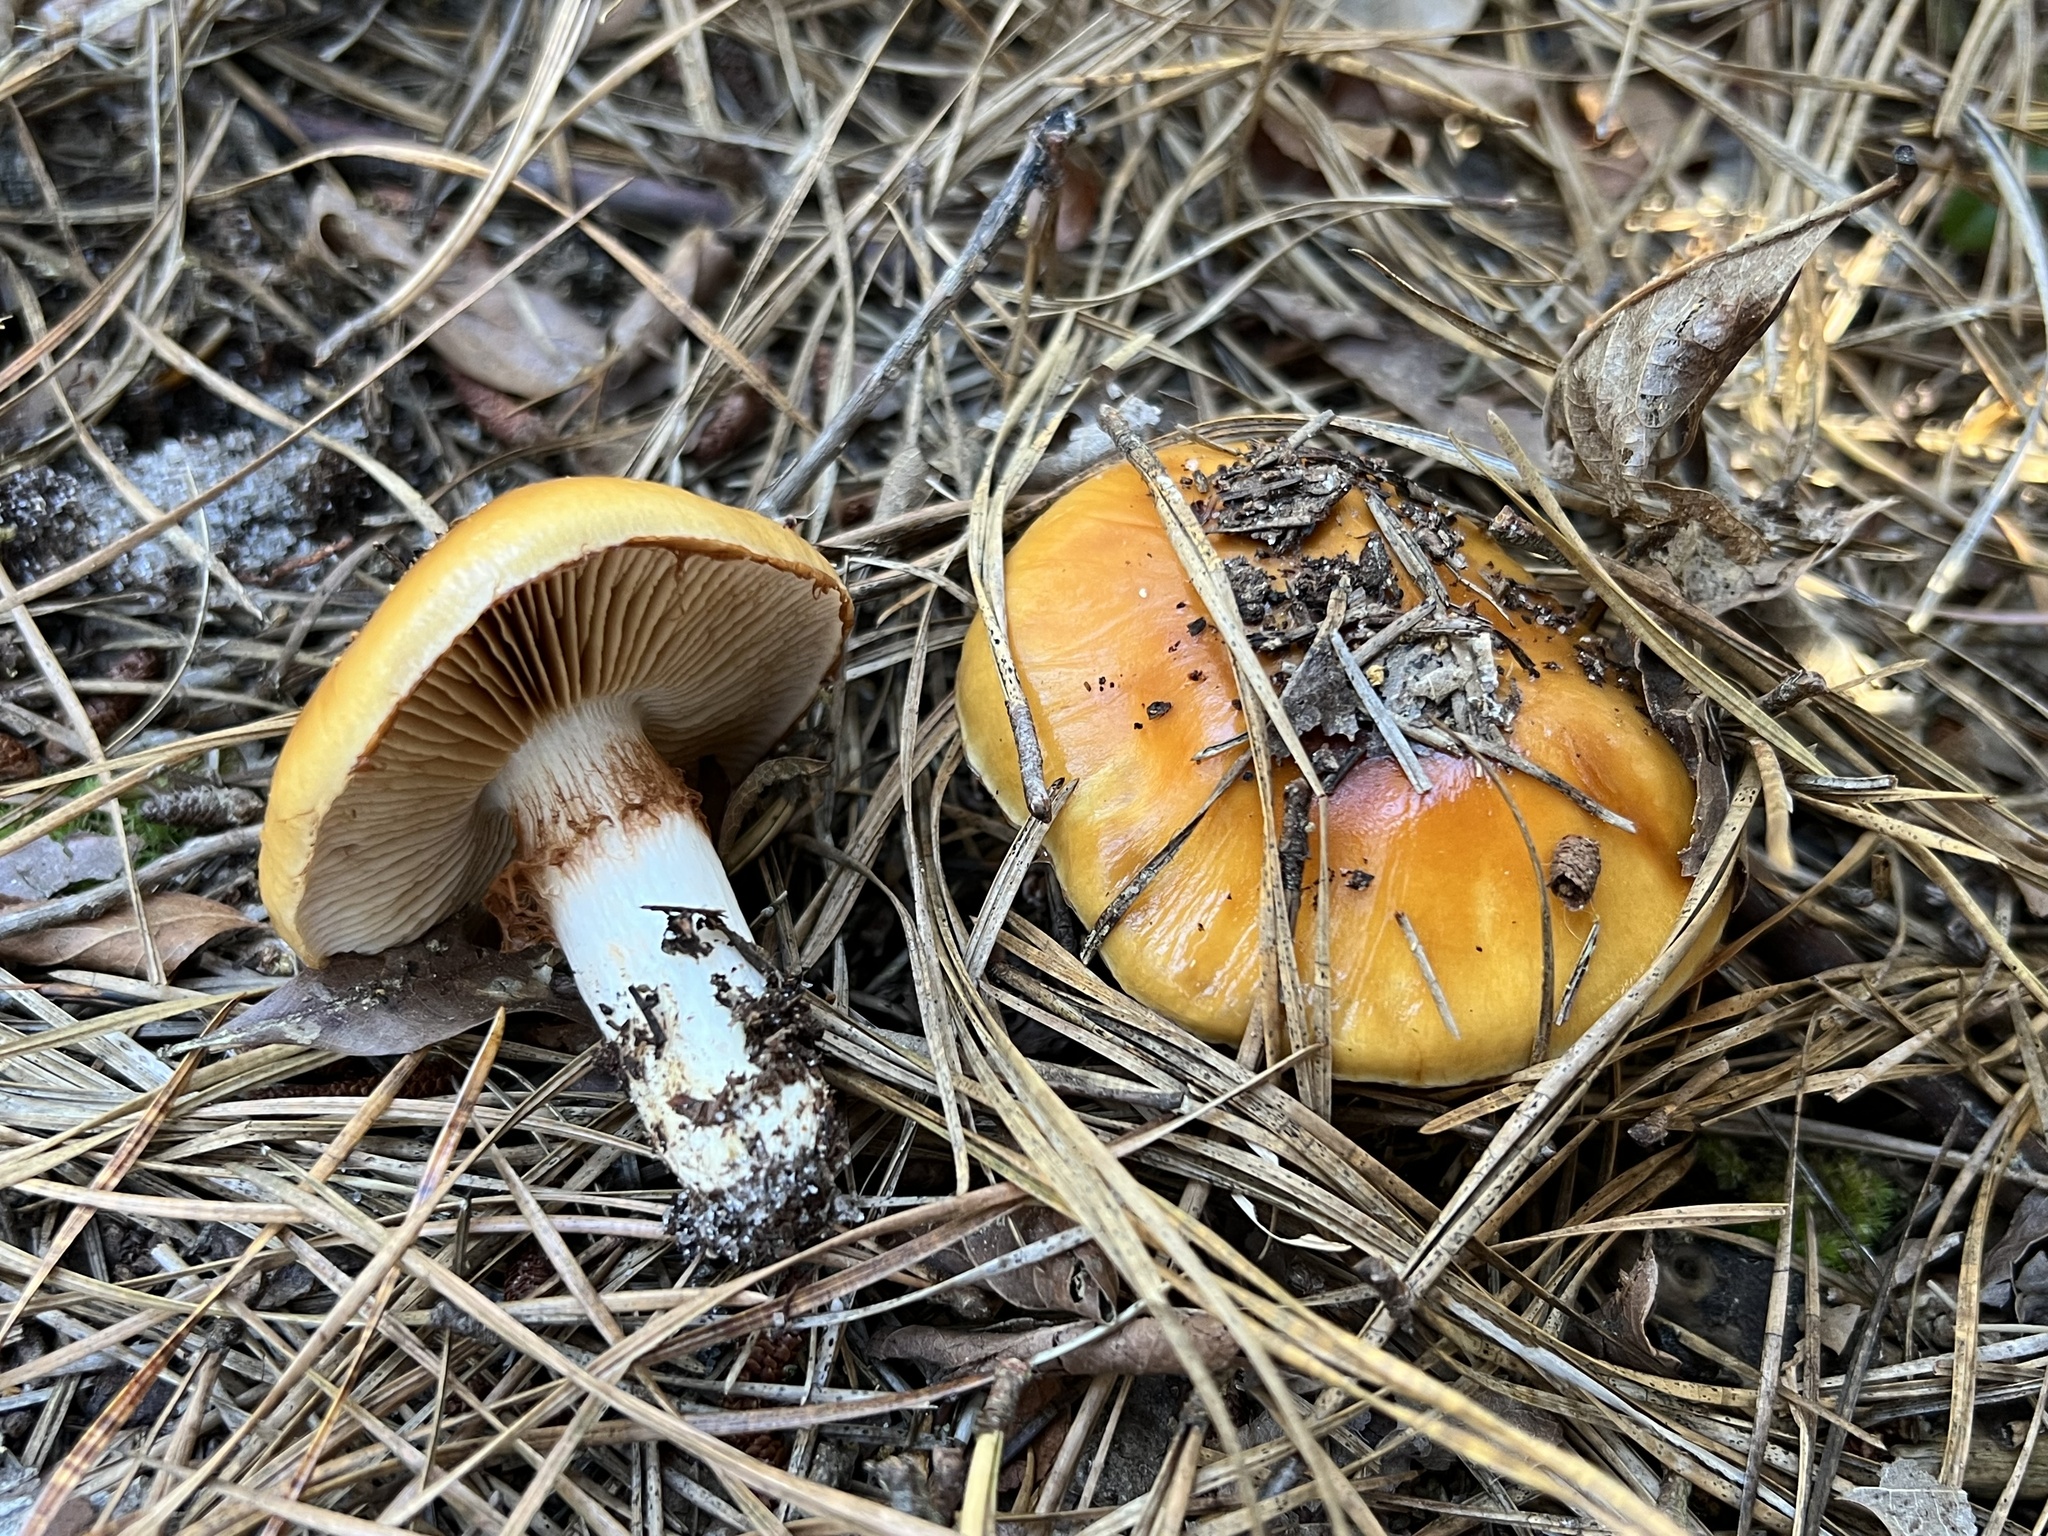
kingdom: Fungi
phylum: Basidiomycota
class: Agaricomycetes
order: Agaricales
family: Cortinariaceae
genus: Cortinarius
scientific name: Cortinarius mucosus
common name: Orange webcap
